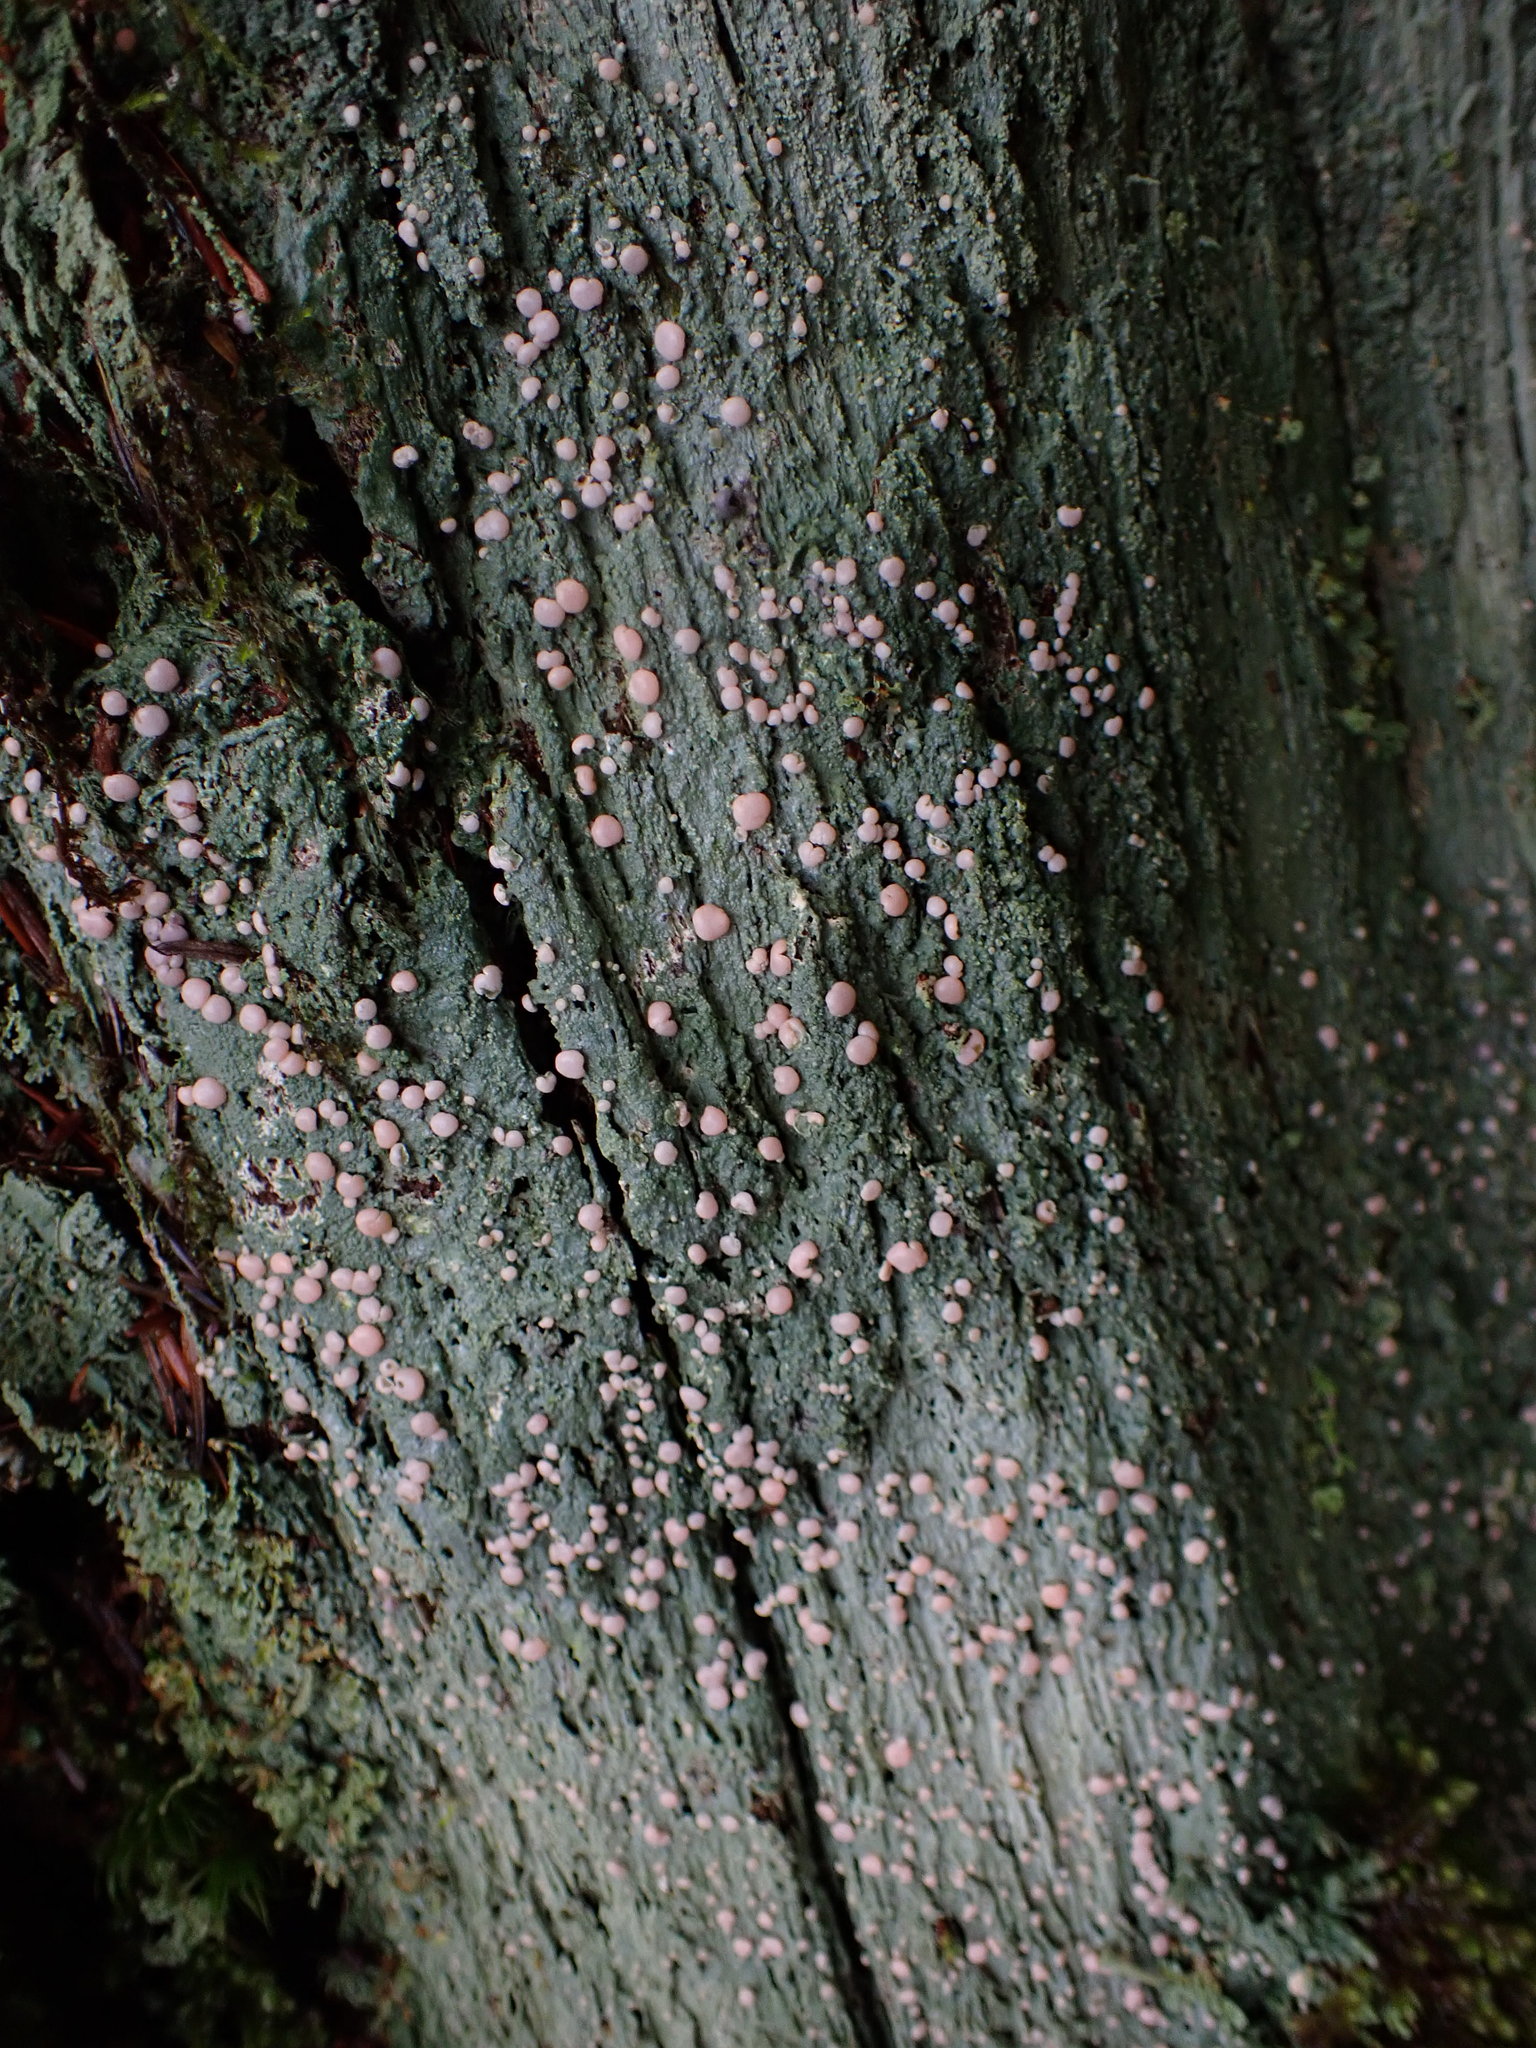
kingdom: Fungi
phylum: Ascomycota
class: Lecanoromycetes
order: Pertusariales
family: Icmadophilaceae
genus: Icmadophila
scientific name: Icmadophila ericetorum
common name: Candy lichen
